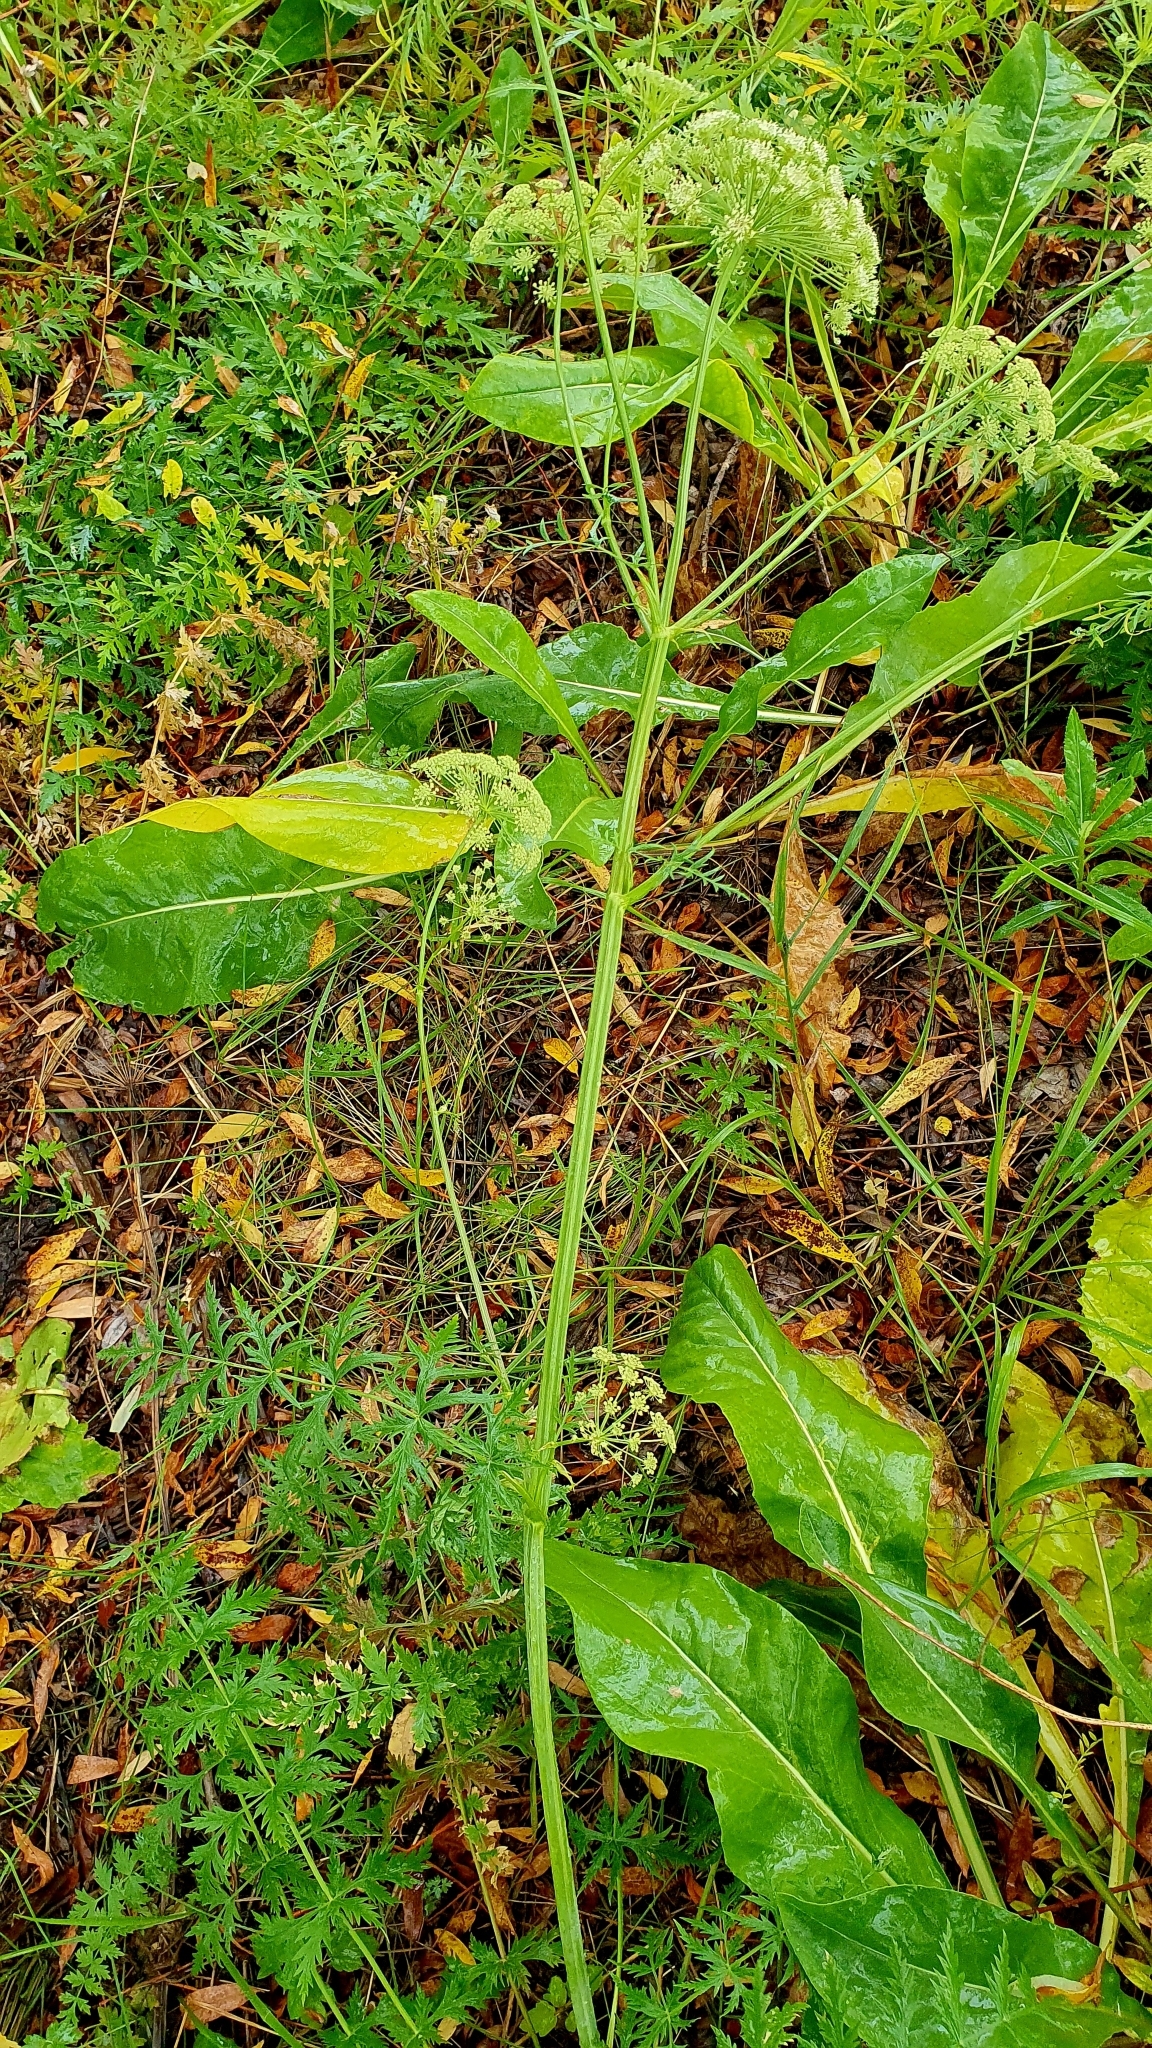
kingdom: Plantae
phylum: Tracheophyta
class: Magnoliopsida
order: Apiales
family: Apiaceae
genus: Seseli
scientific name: Seseli libanotis
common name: Mooncarrot
